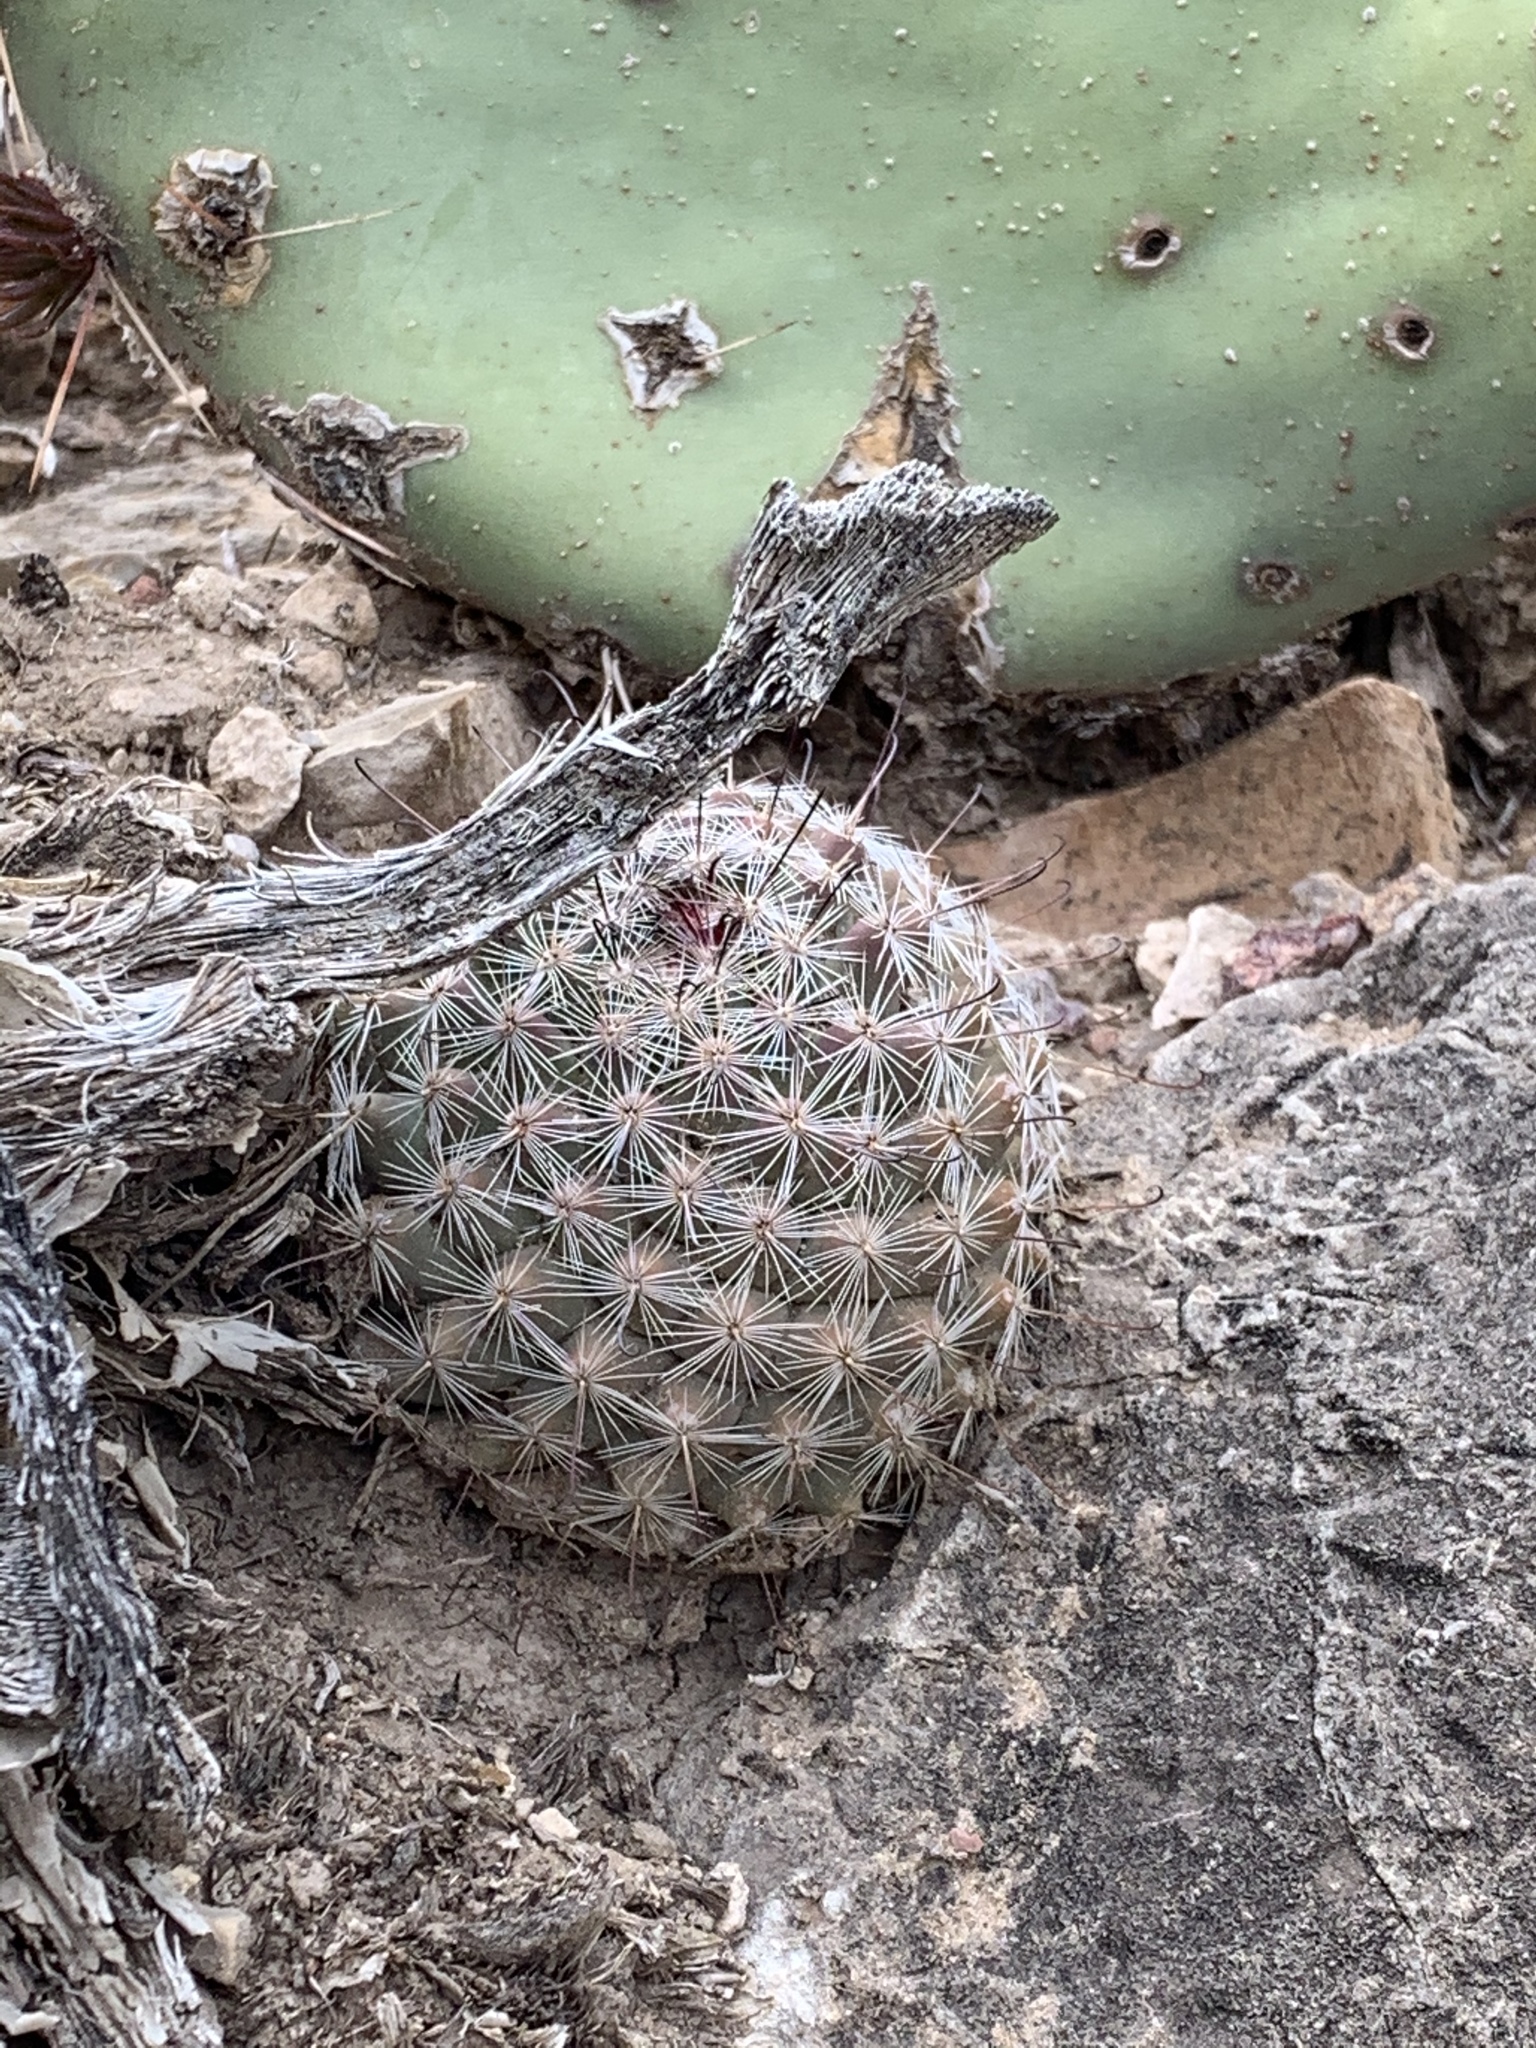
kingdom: Plantae
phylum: Tracheophyta
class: Magnoliopsida
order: Caryophyllales
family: Cactaceae
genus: Cochemiea
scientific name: Cochemiea grahamii
